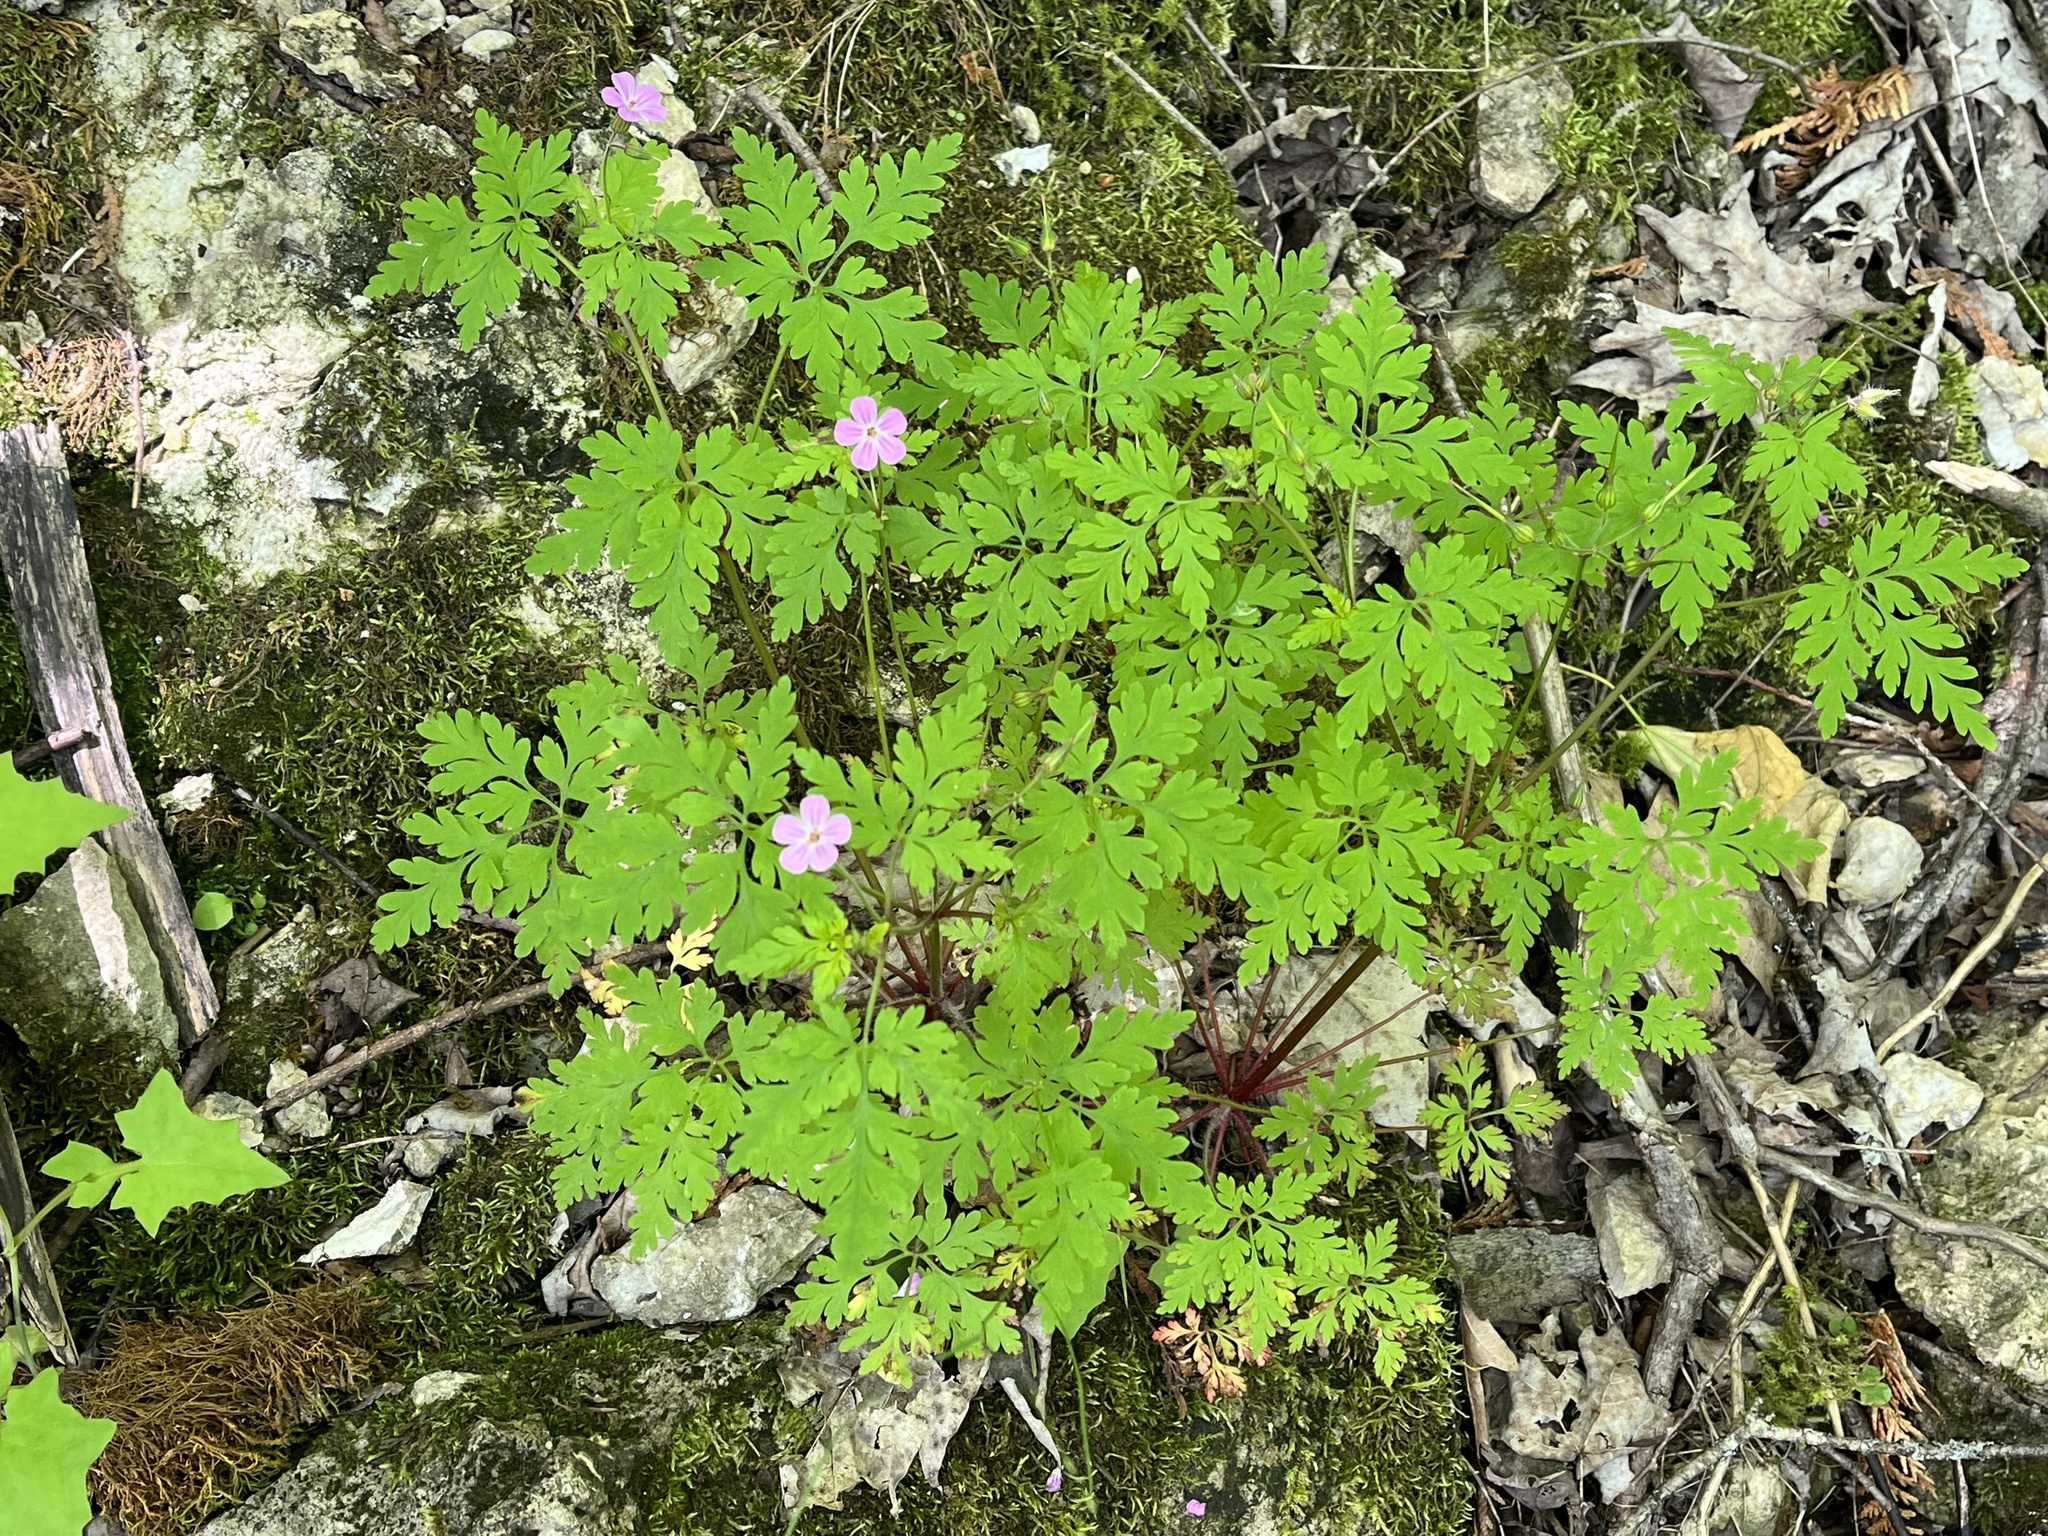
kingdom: Plantae
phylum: Tracheophyta
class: Magnoliopsida
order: Geraniales
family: Geraniaceae
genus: Geranium
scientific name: Geranium robertianum
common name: Herb-robert
